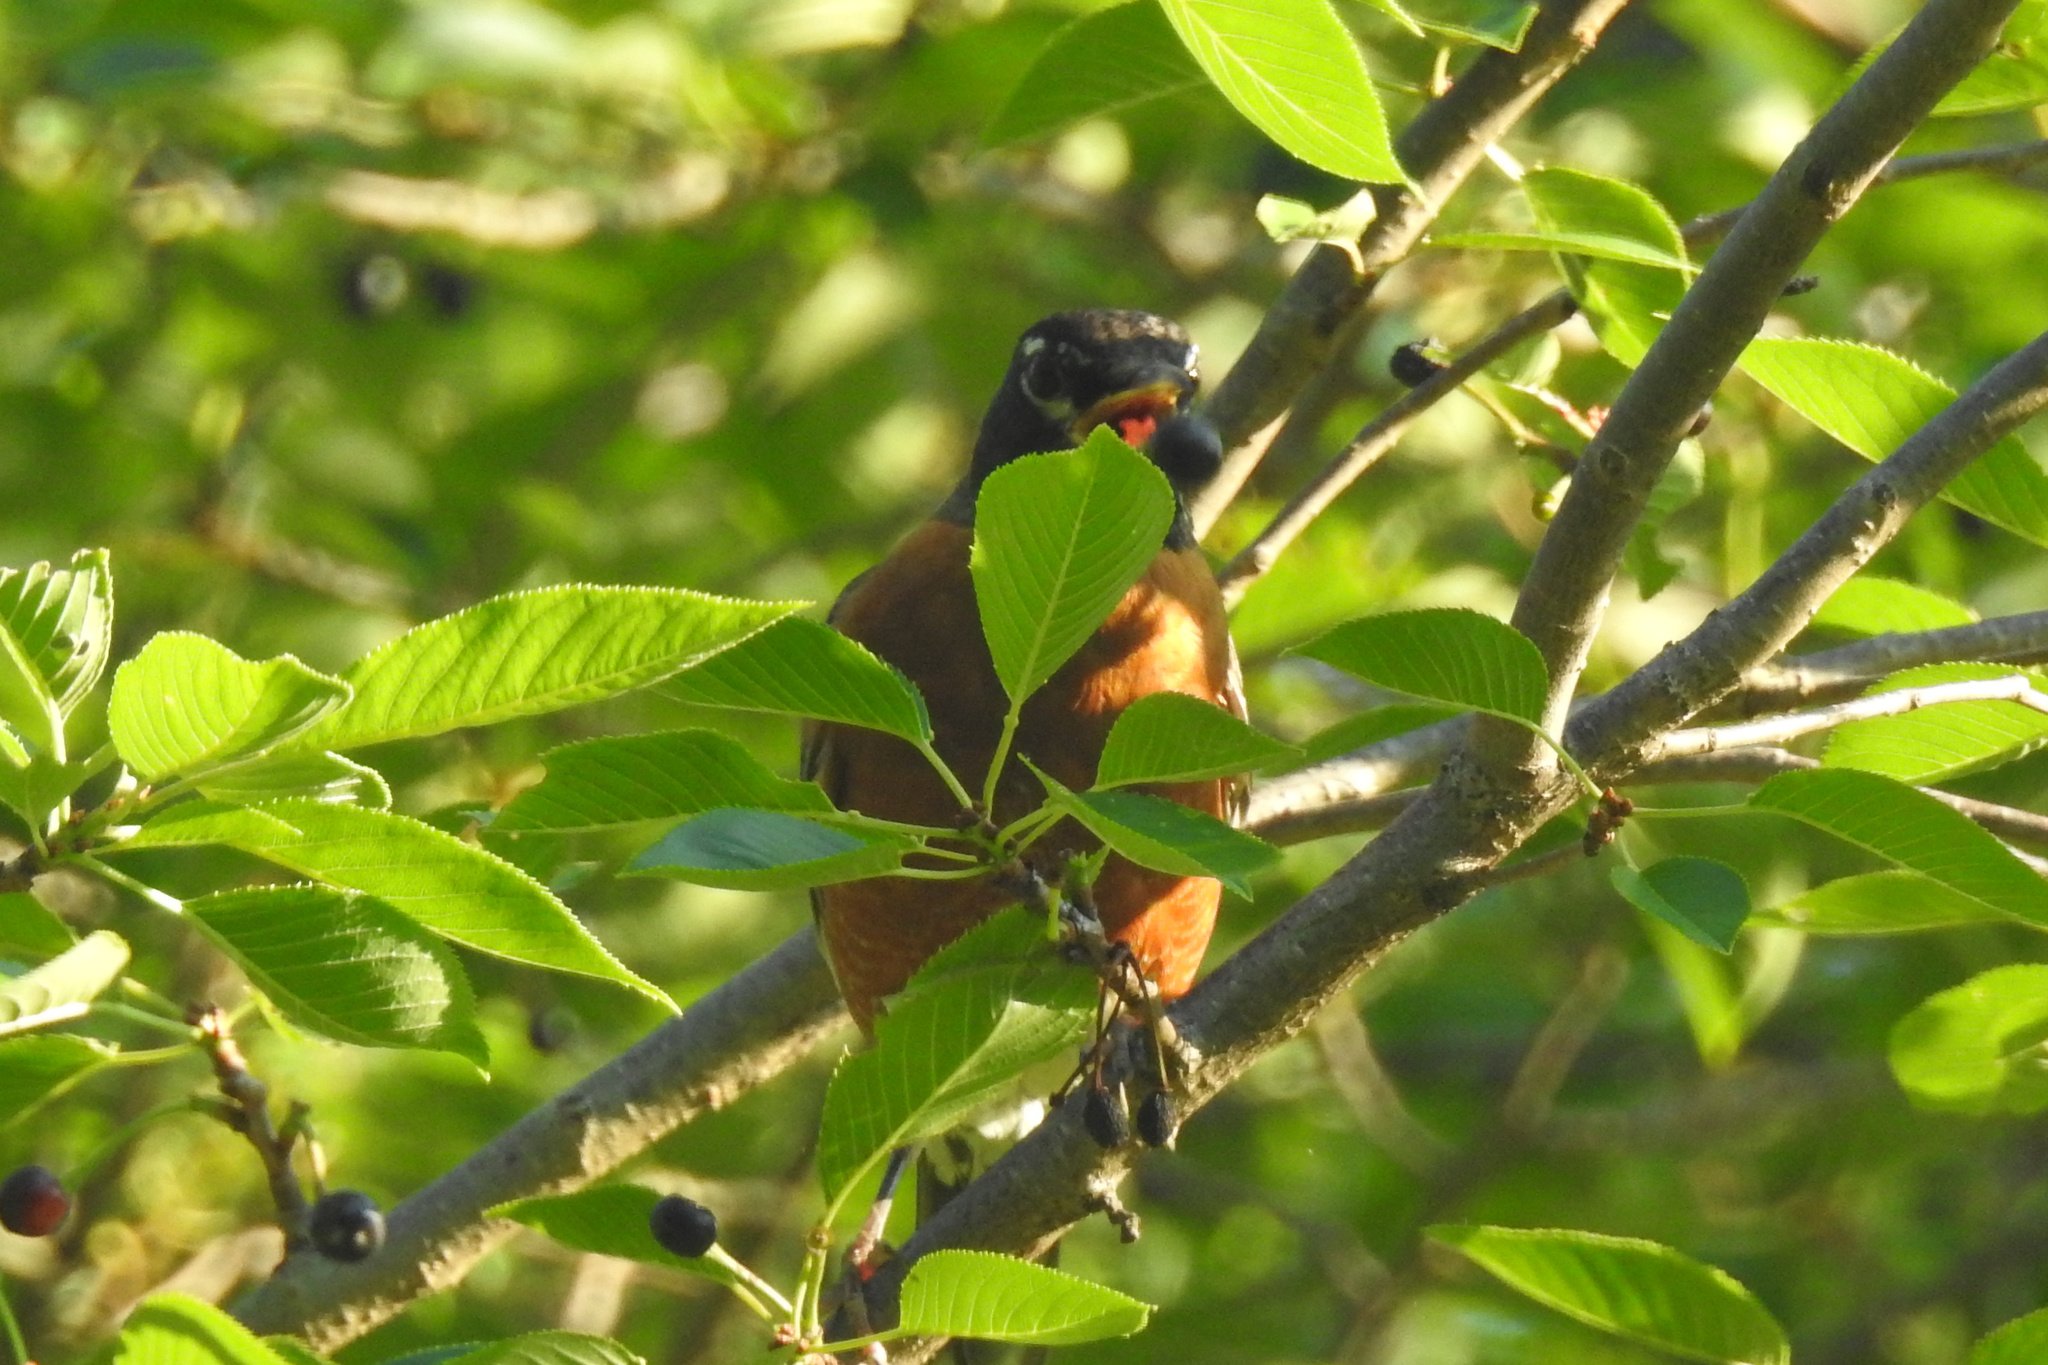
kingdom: Animalia
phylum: Chordata
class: Aves
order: Passeriformes
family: Turdidae
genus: Turdus
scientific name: Turdus migratorius
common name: American robin
